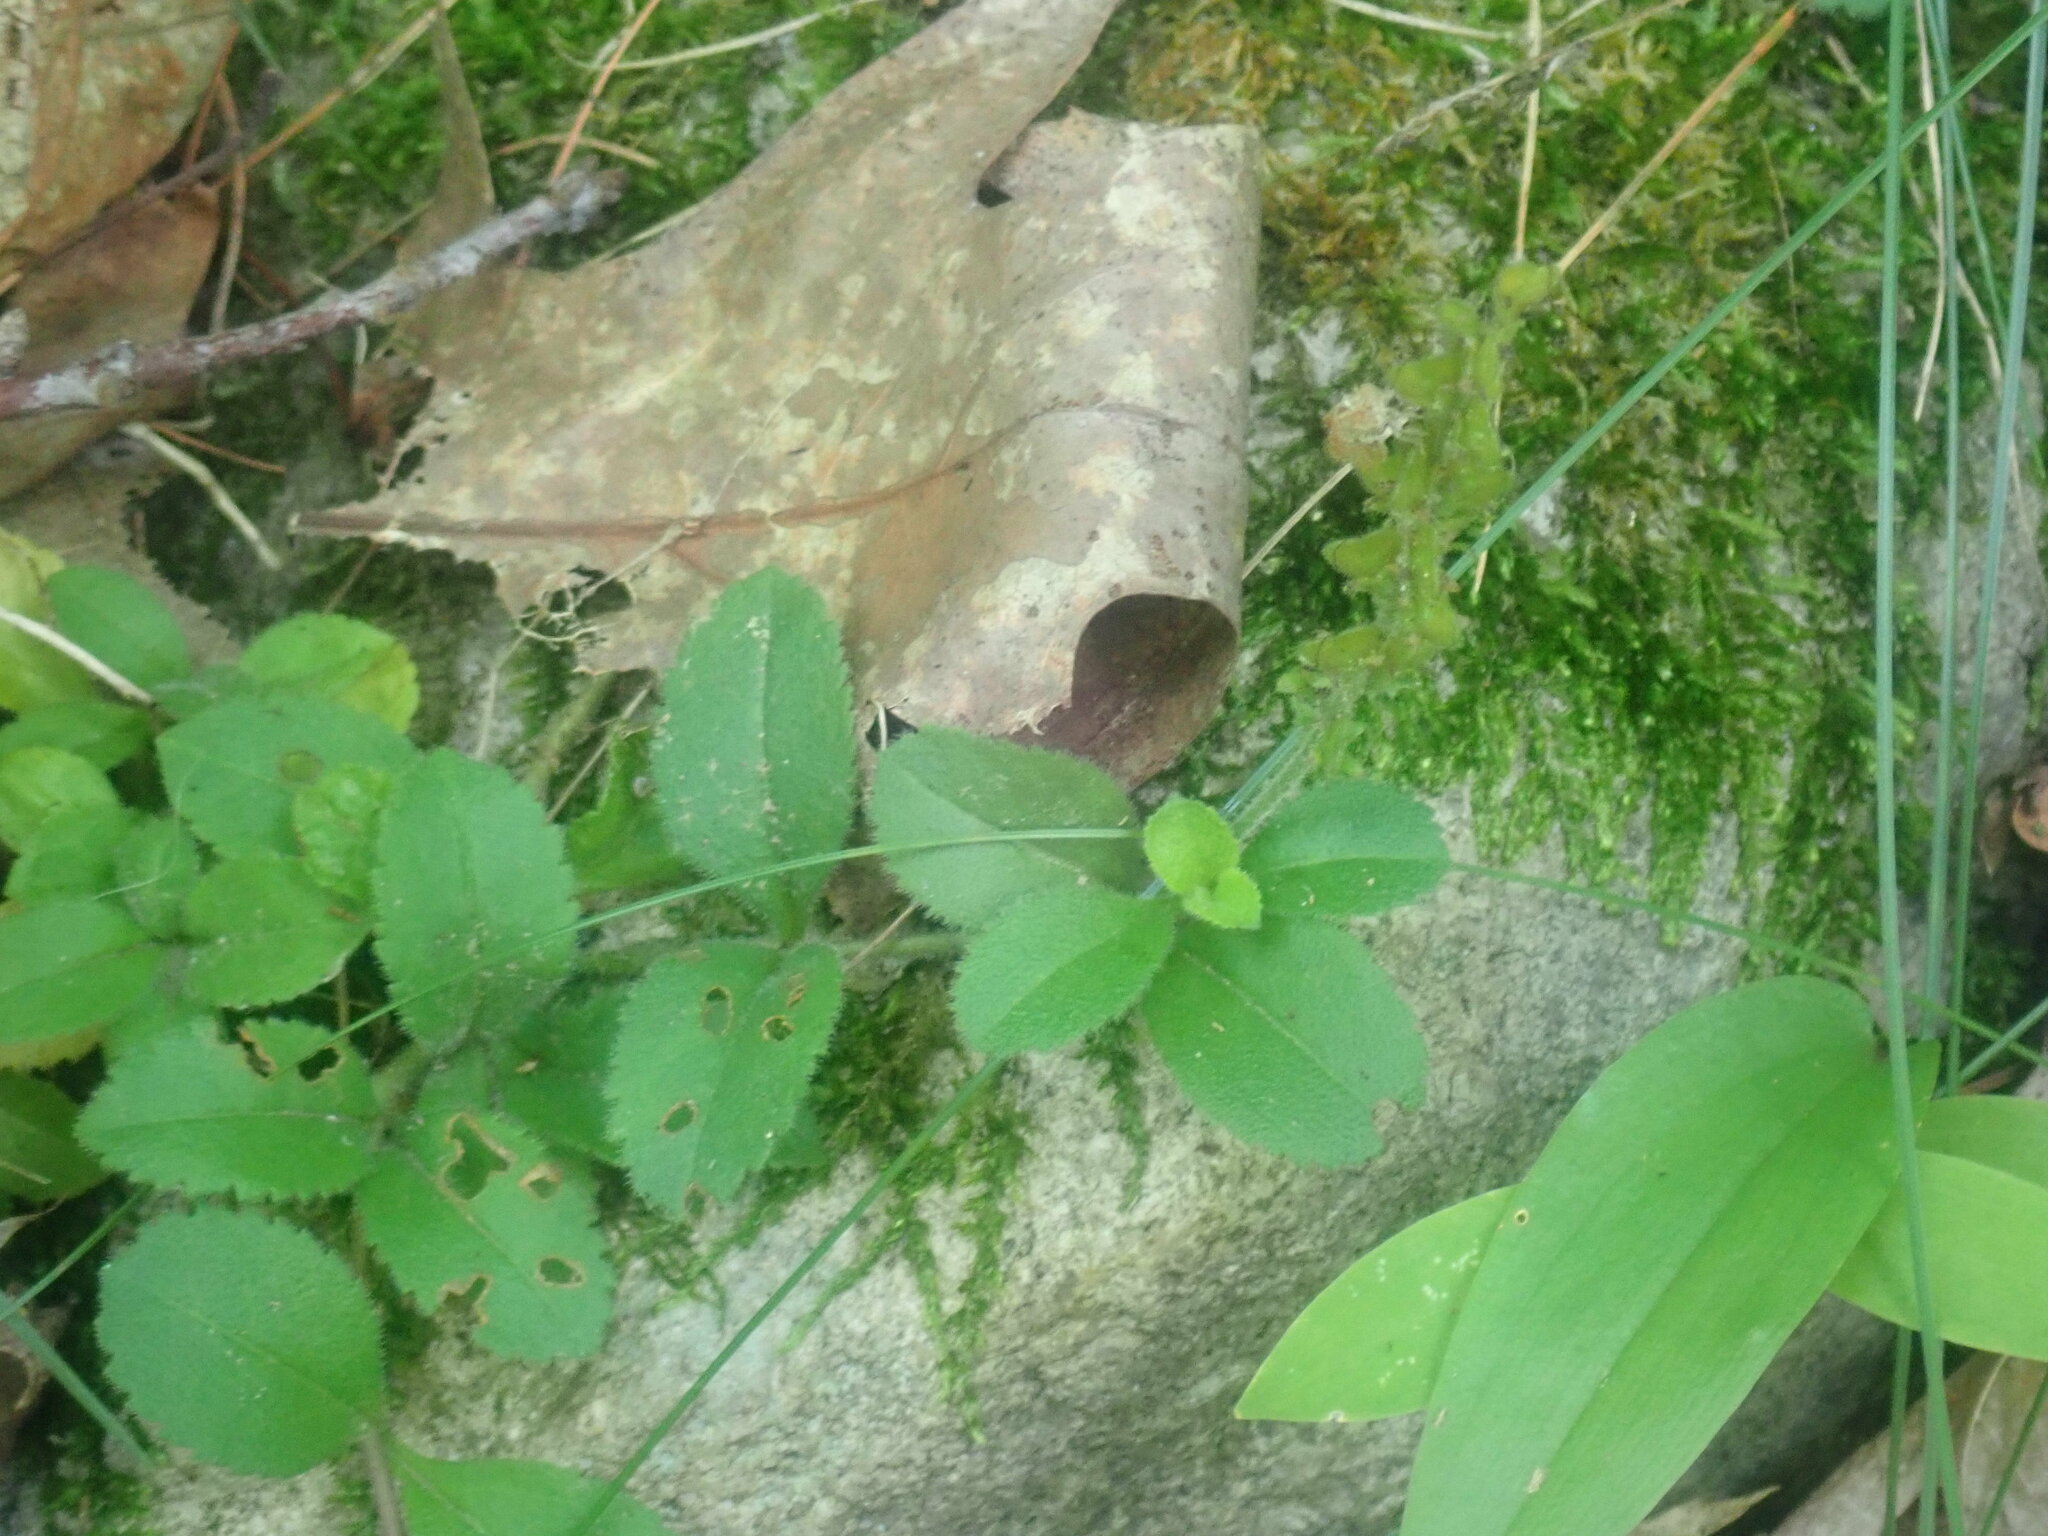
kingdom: Plantae
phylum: Tracheophyta
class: Magnoliopsida
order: Lamiales
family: Plantaginaceae
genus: Veronica
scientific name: Veronica officinalis
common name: Common speedwell
